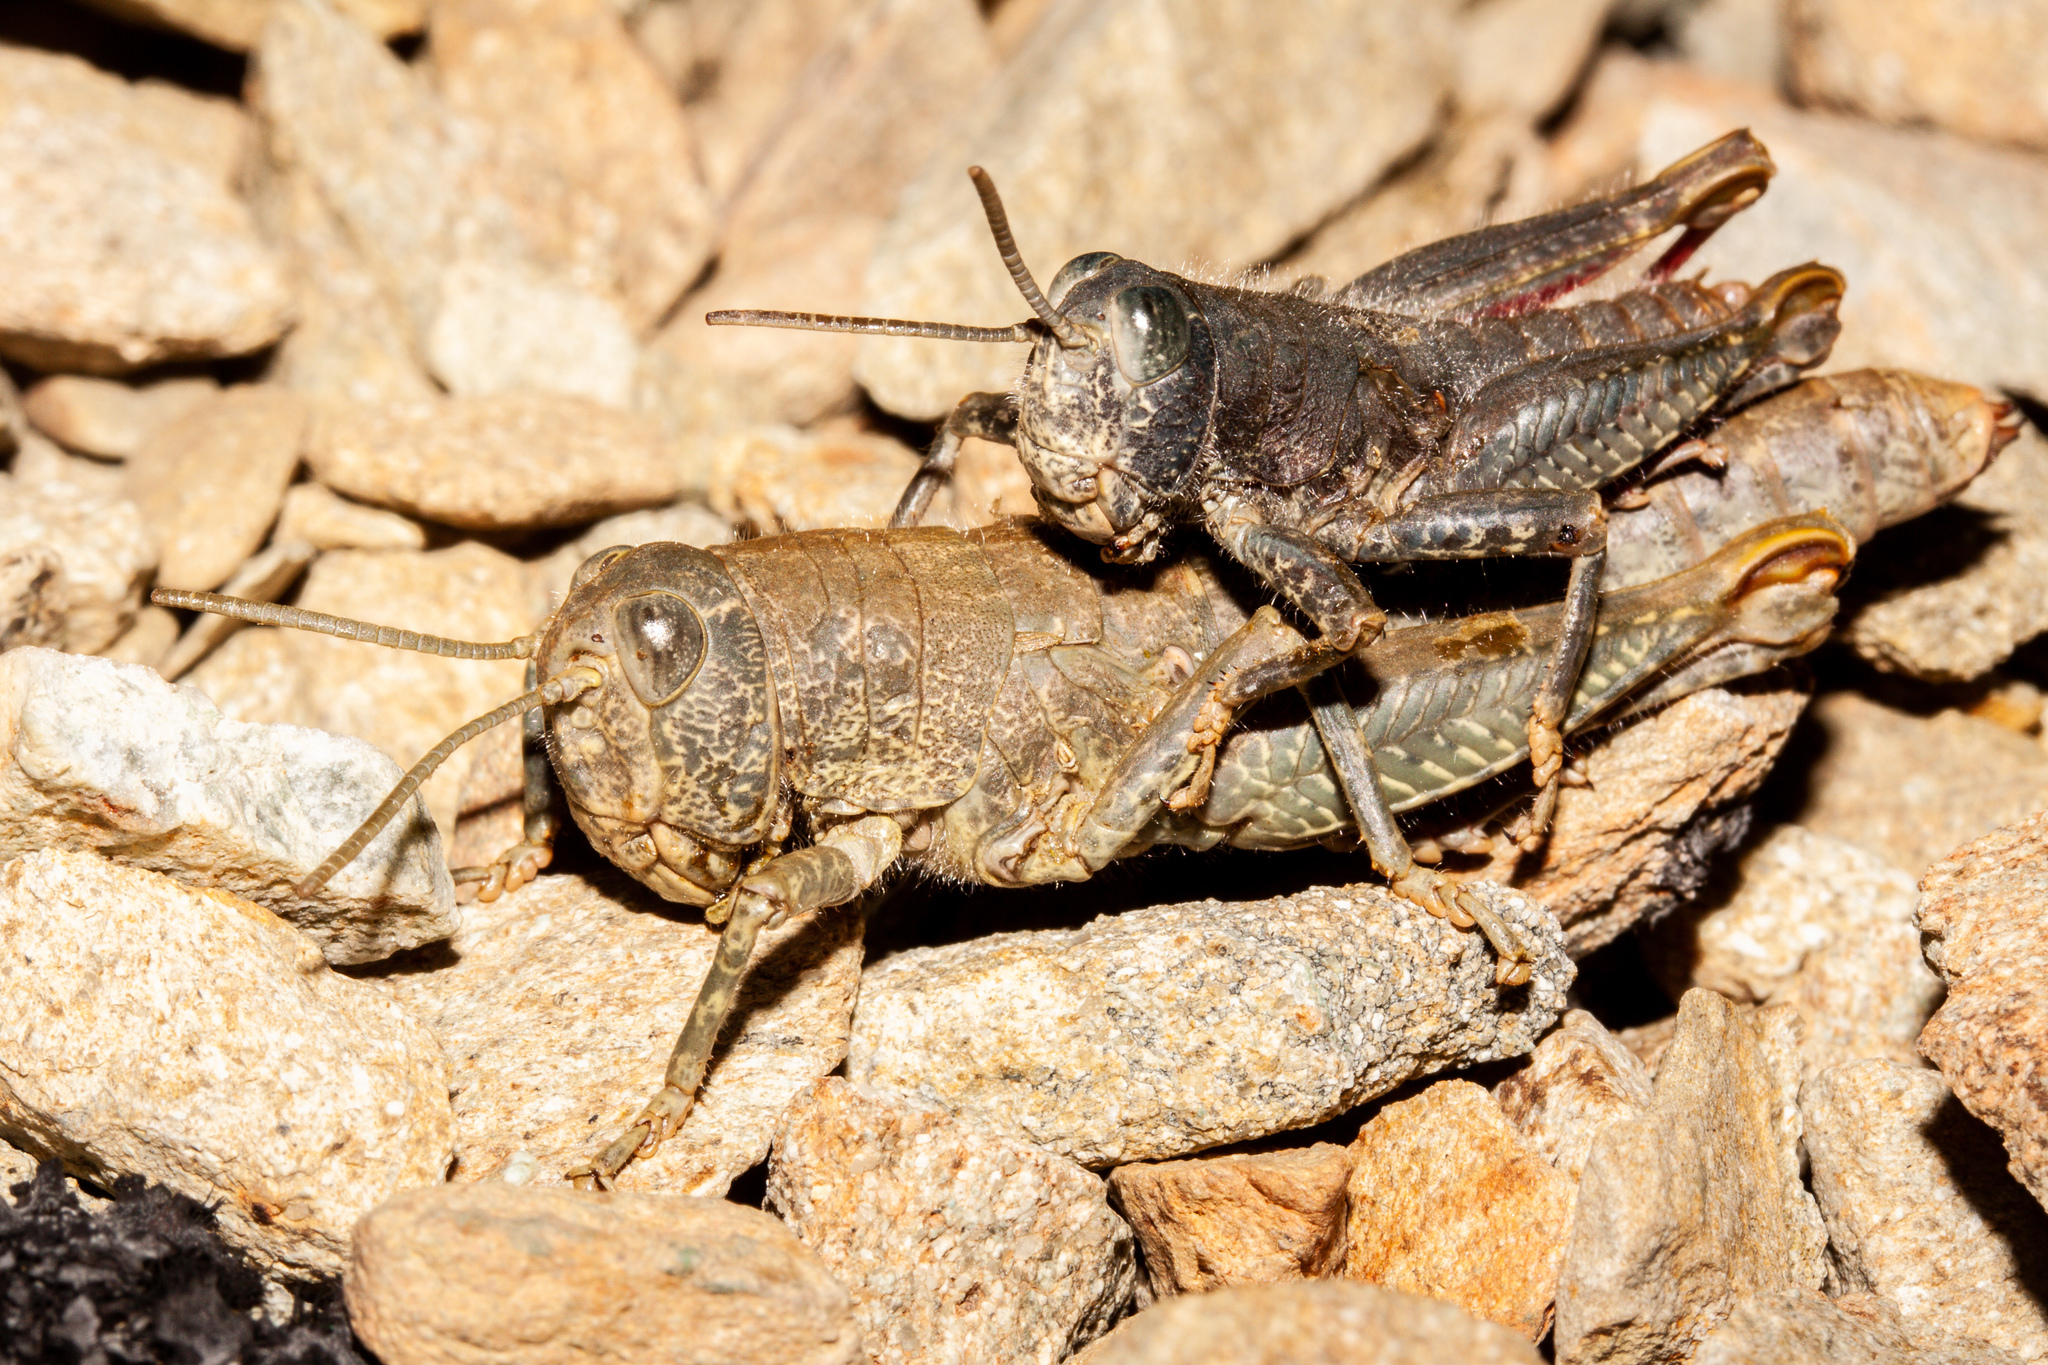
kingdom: Animalia
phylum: Arthropoda
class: Insecta
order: Orthoptera
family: Acrididae
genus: Sigaus
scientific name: Sigaus
